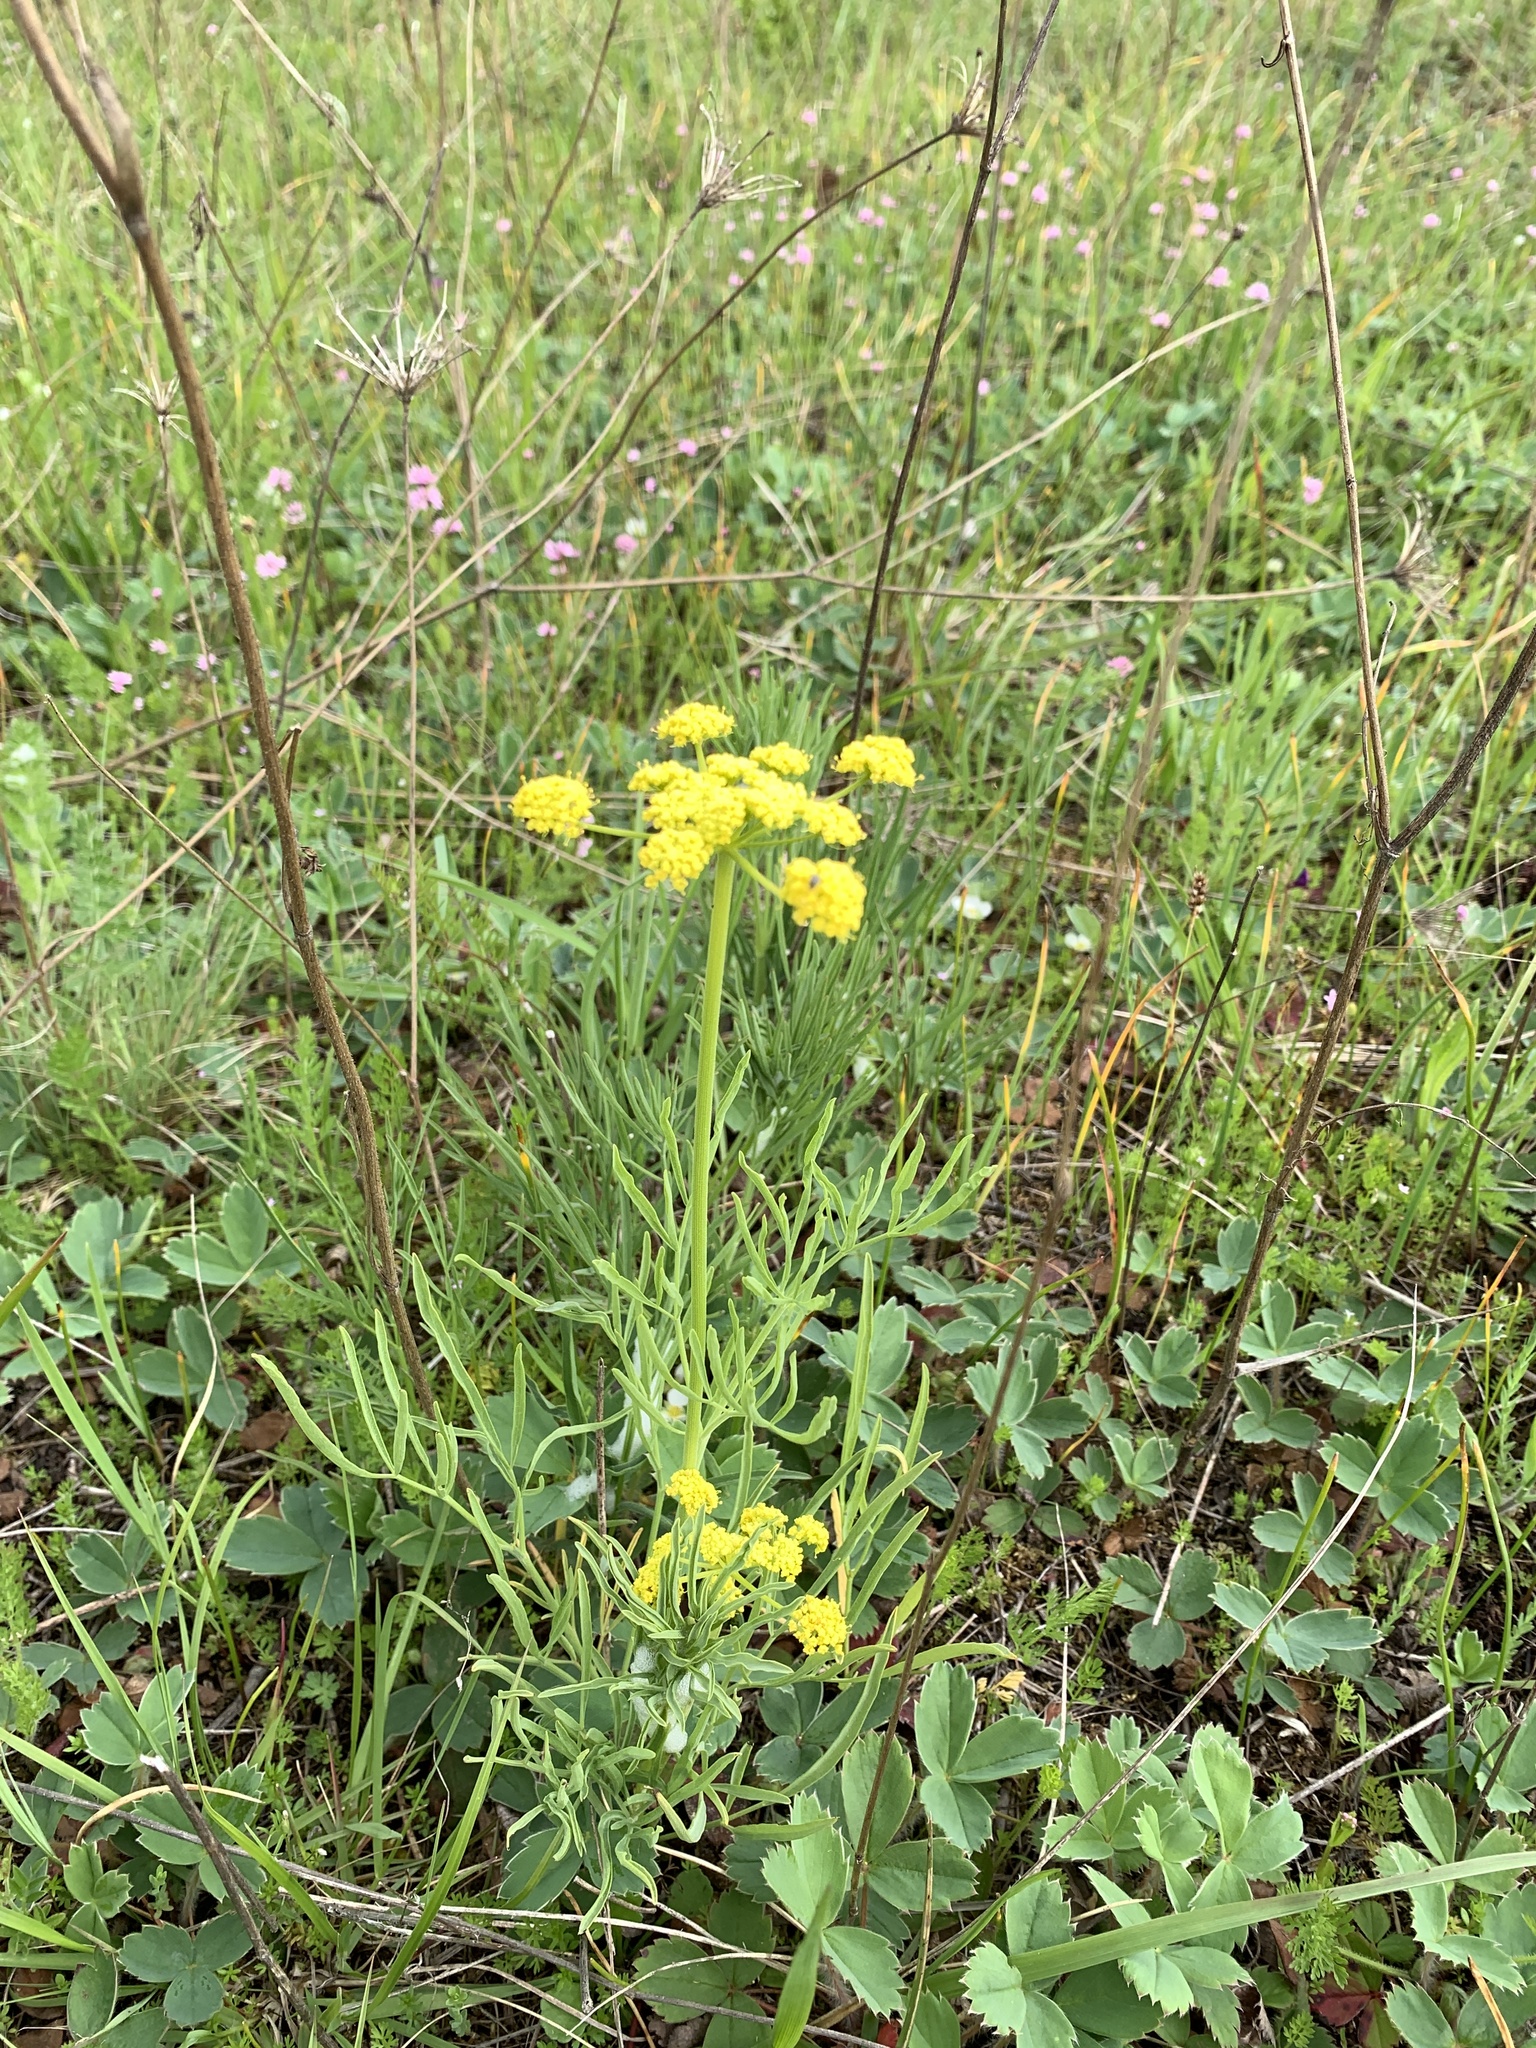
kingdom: Plantae
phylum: Tracheophyta
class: Magnoliopsida
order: Apiales
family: Apiaceae
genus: Lomatium
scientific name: Lomatium triternatum
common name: Ternate lomatium
